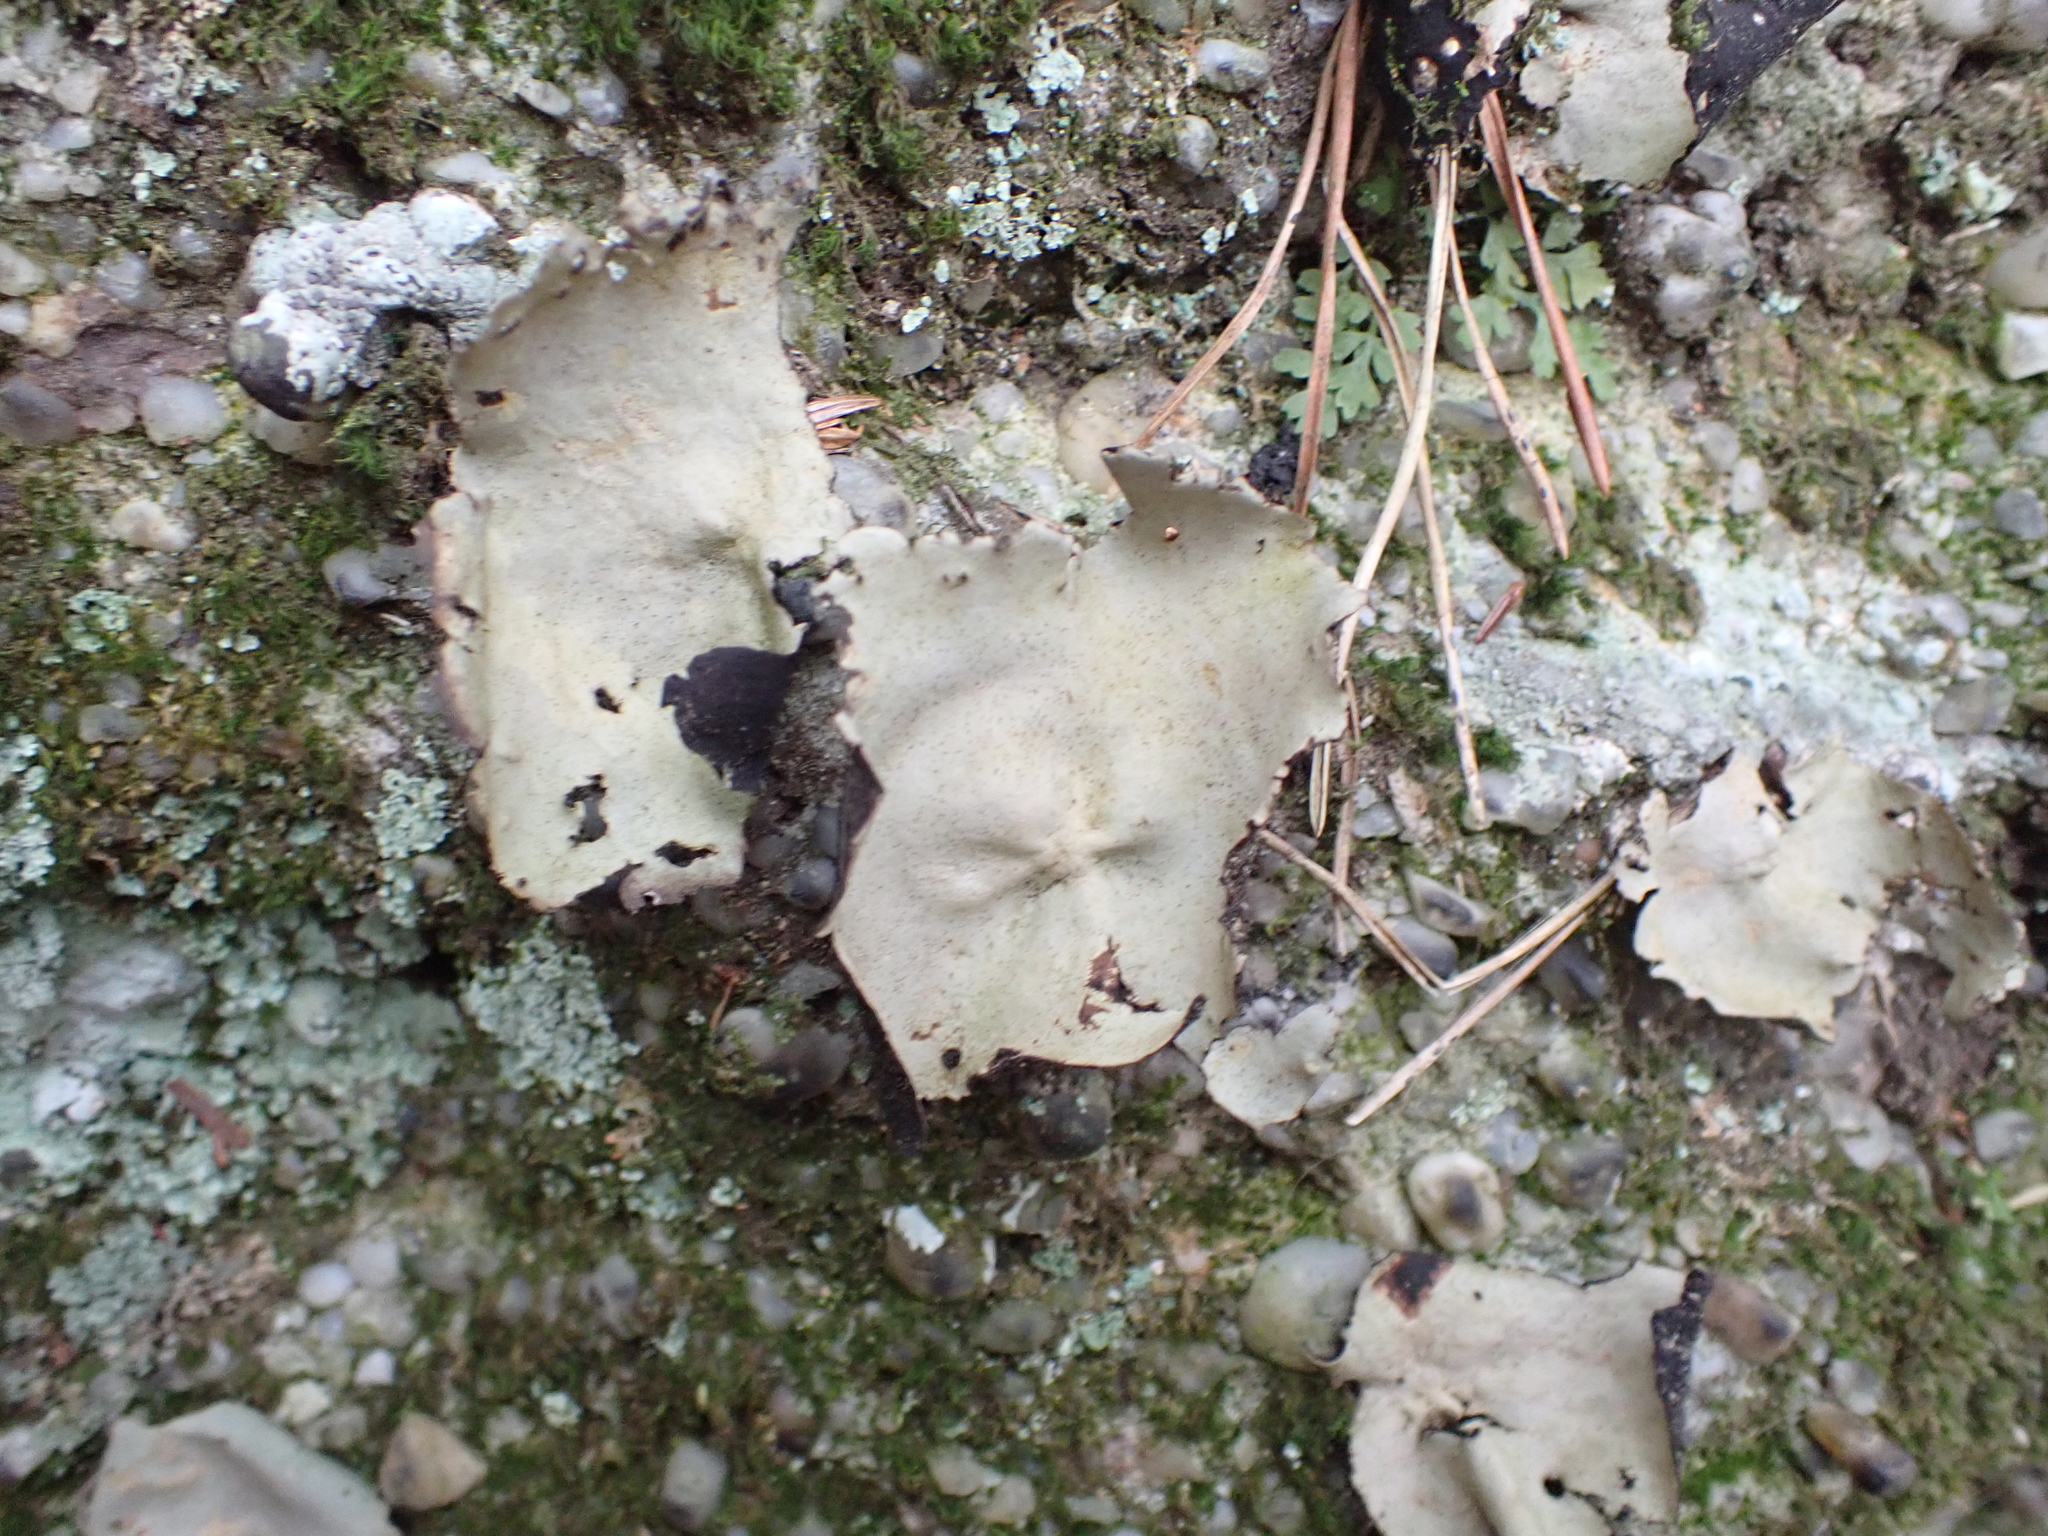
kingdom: Fungi
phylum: Ascomycota
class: Lecanoromycetes
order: Umbilicariales
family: Umbilicariaceae
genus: Umbilicaria
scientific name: Umbilicaria mammulata
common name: Smooth rock tripe
